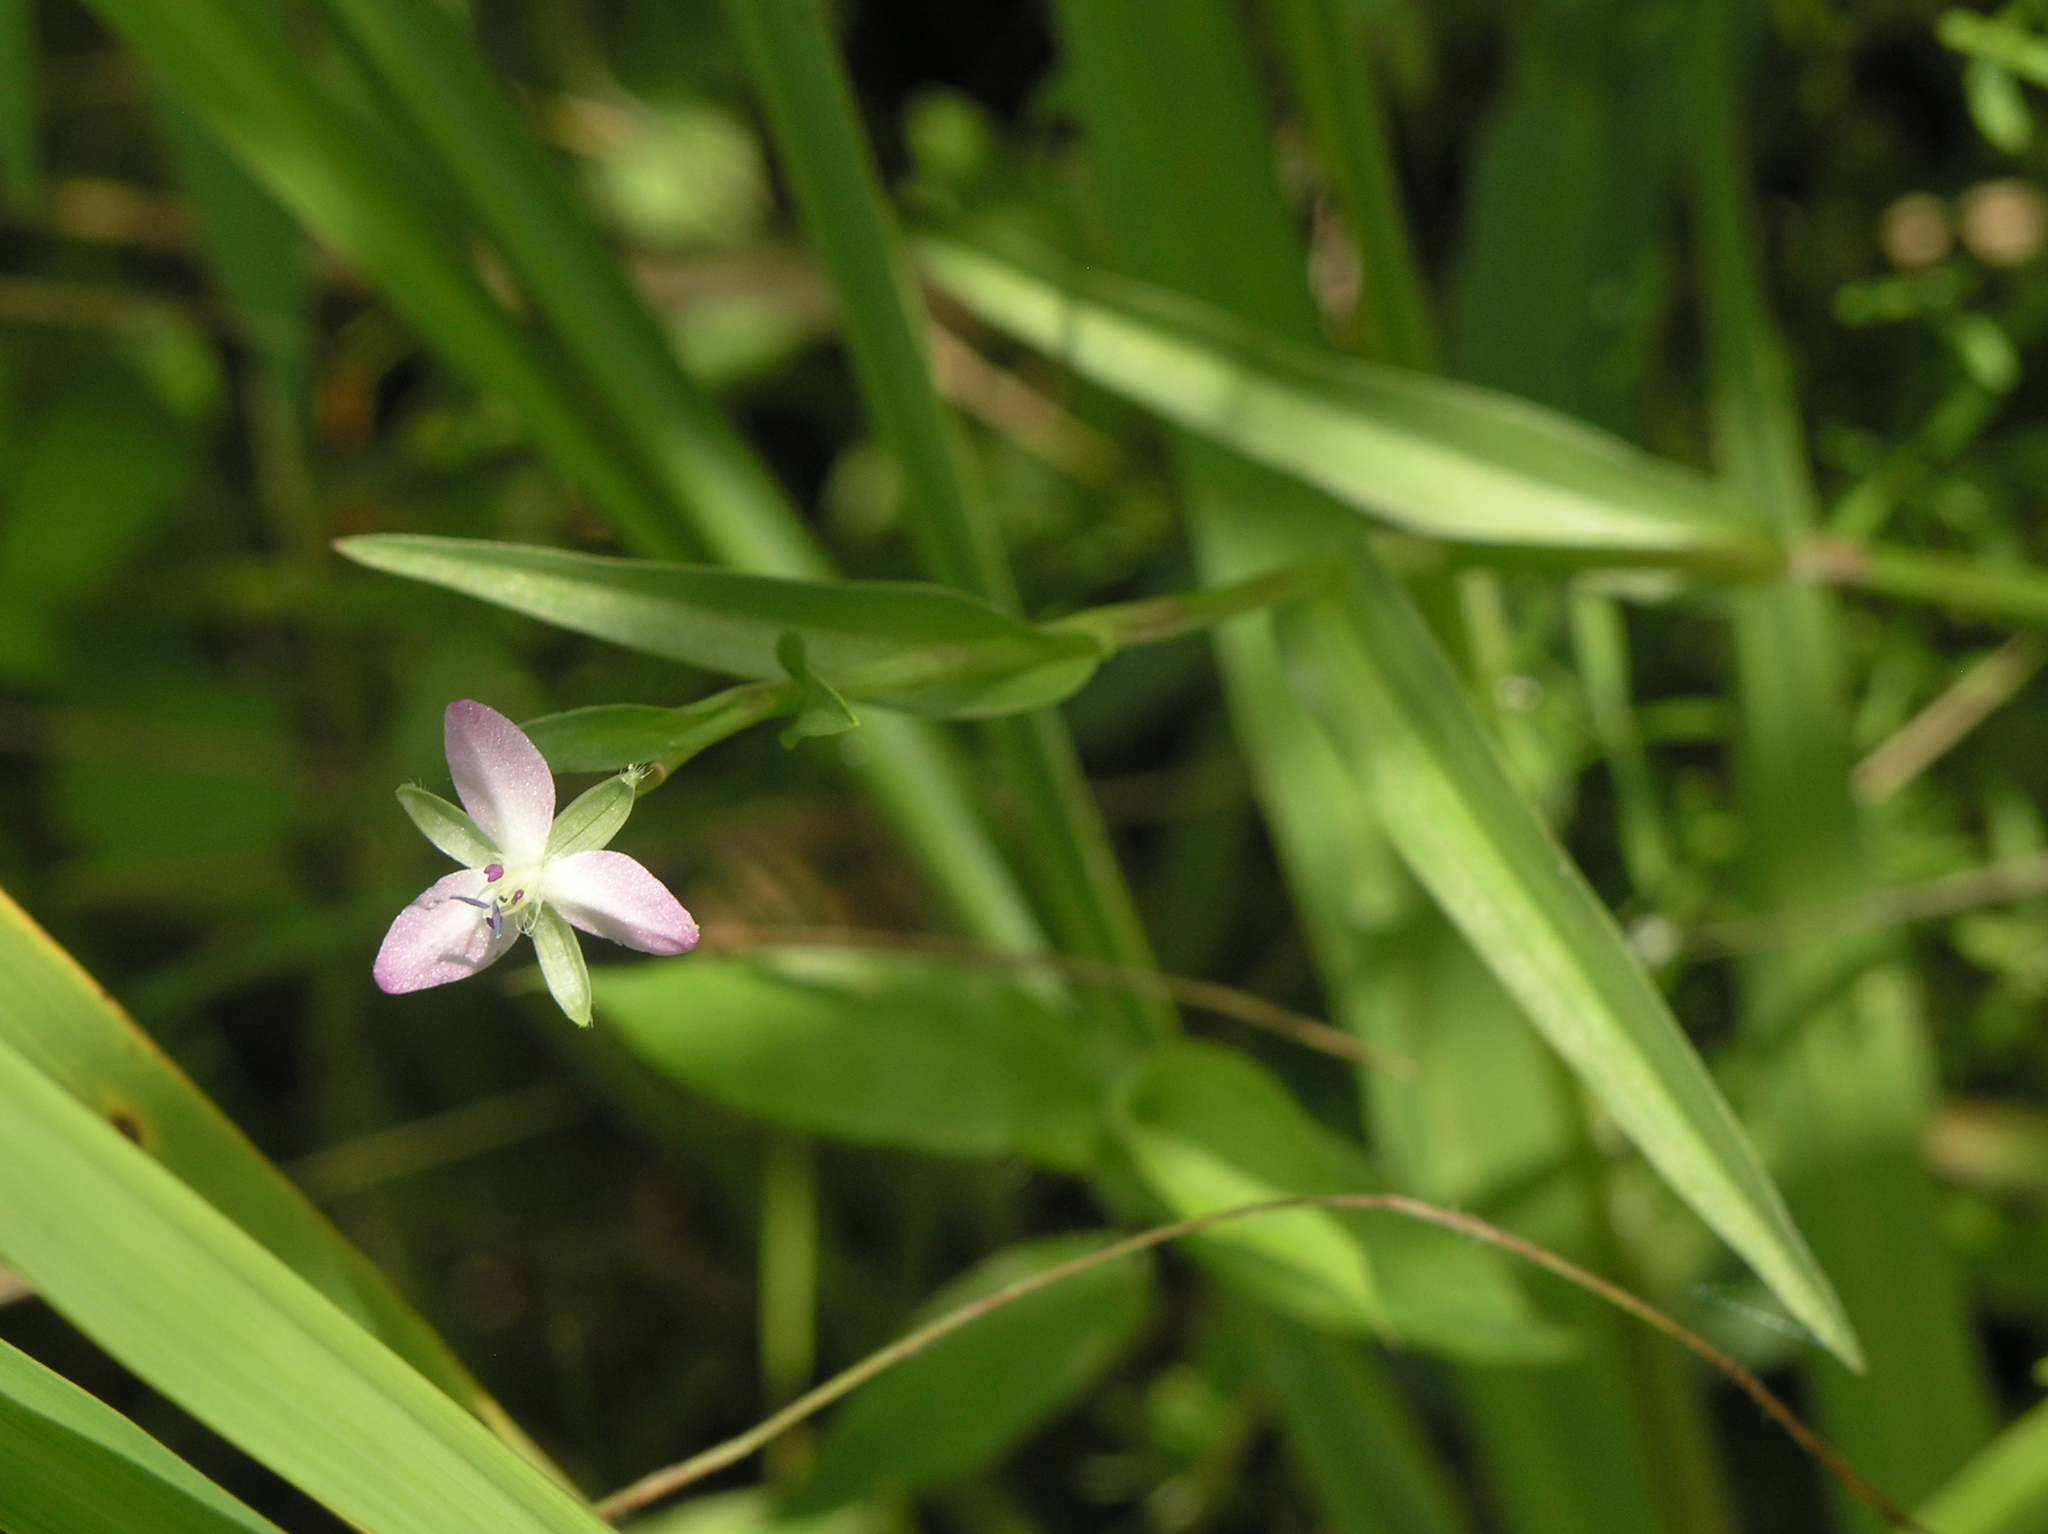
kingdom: Plantae
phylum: Tracheophyta
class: Liliopsida
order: Commelinales
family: Commelinaceae
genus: Murdannia
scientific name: Murdannia keisak
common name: Wartremoving herb
